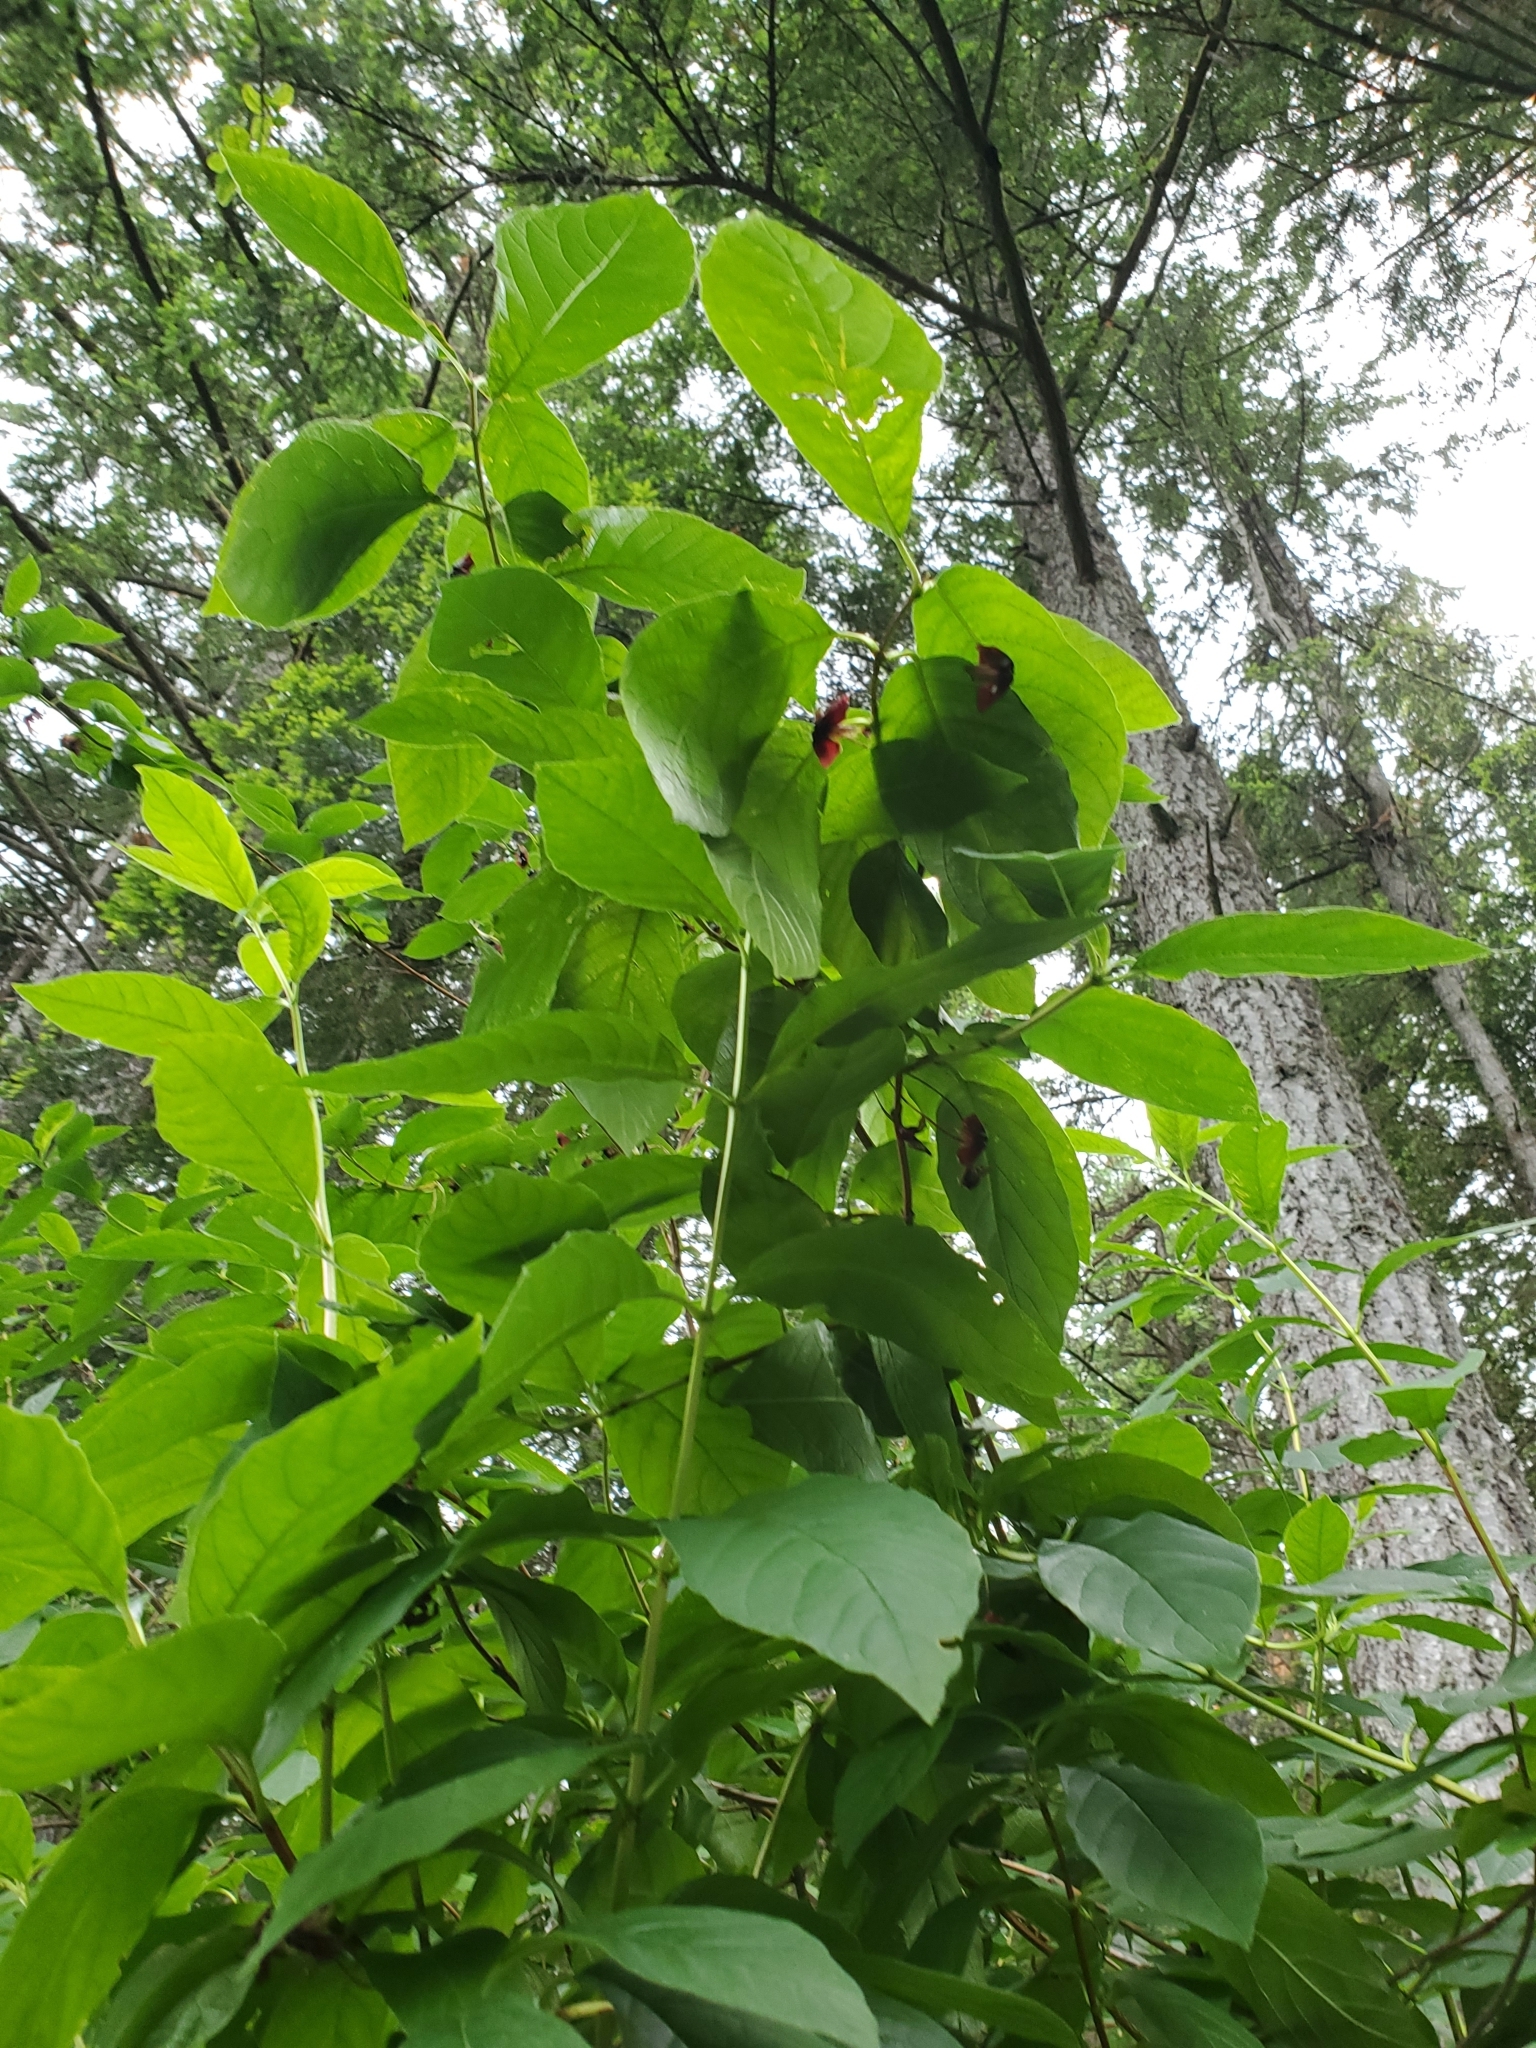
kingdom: Plantae
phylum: Tracheophyta
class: Magnoliopsida
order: Dipsacales
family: Caprifoliaceae
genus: Lonicera
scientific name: Lonicera involucrata
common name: Californian honeysuckle
